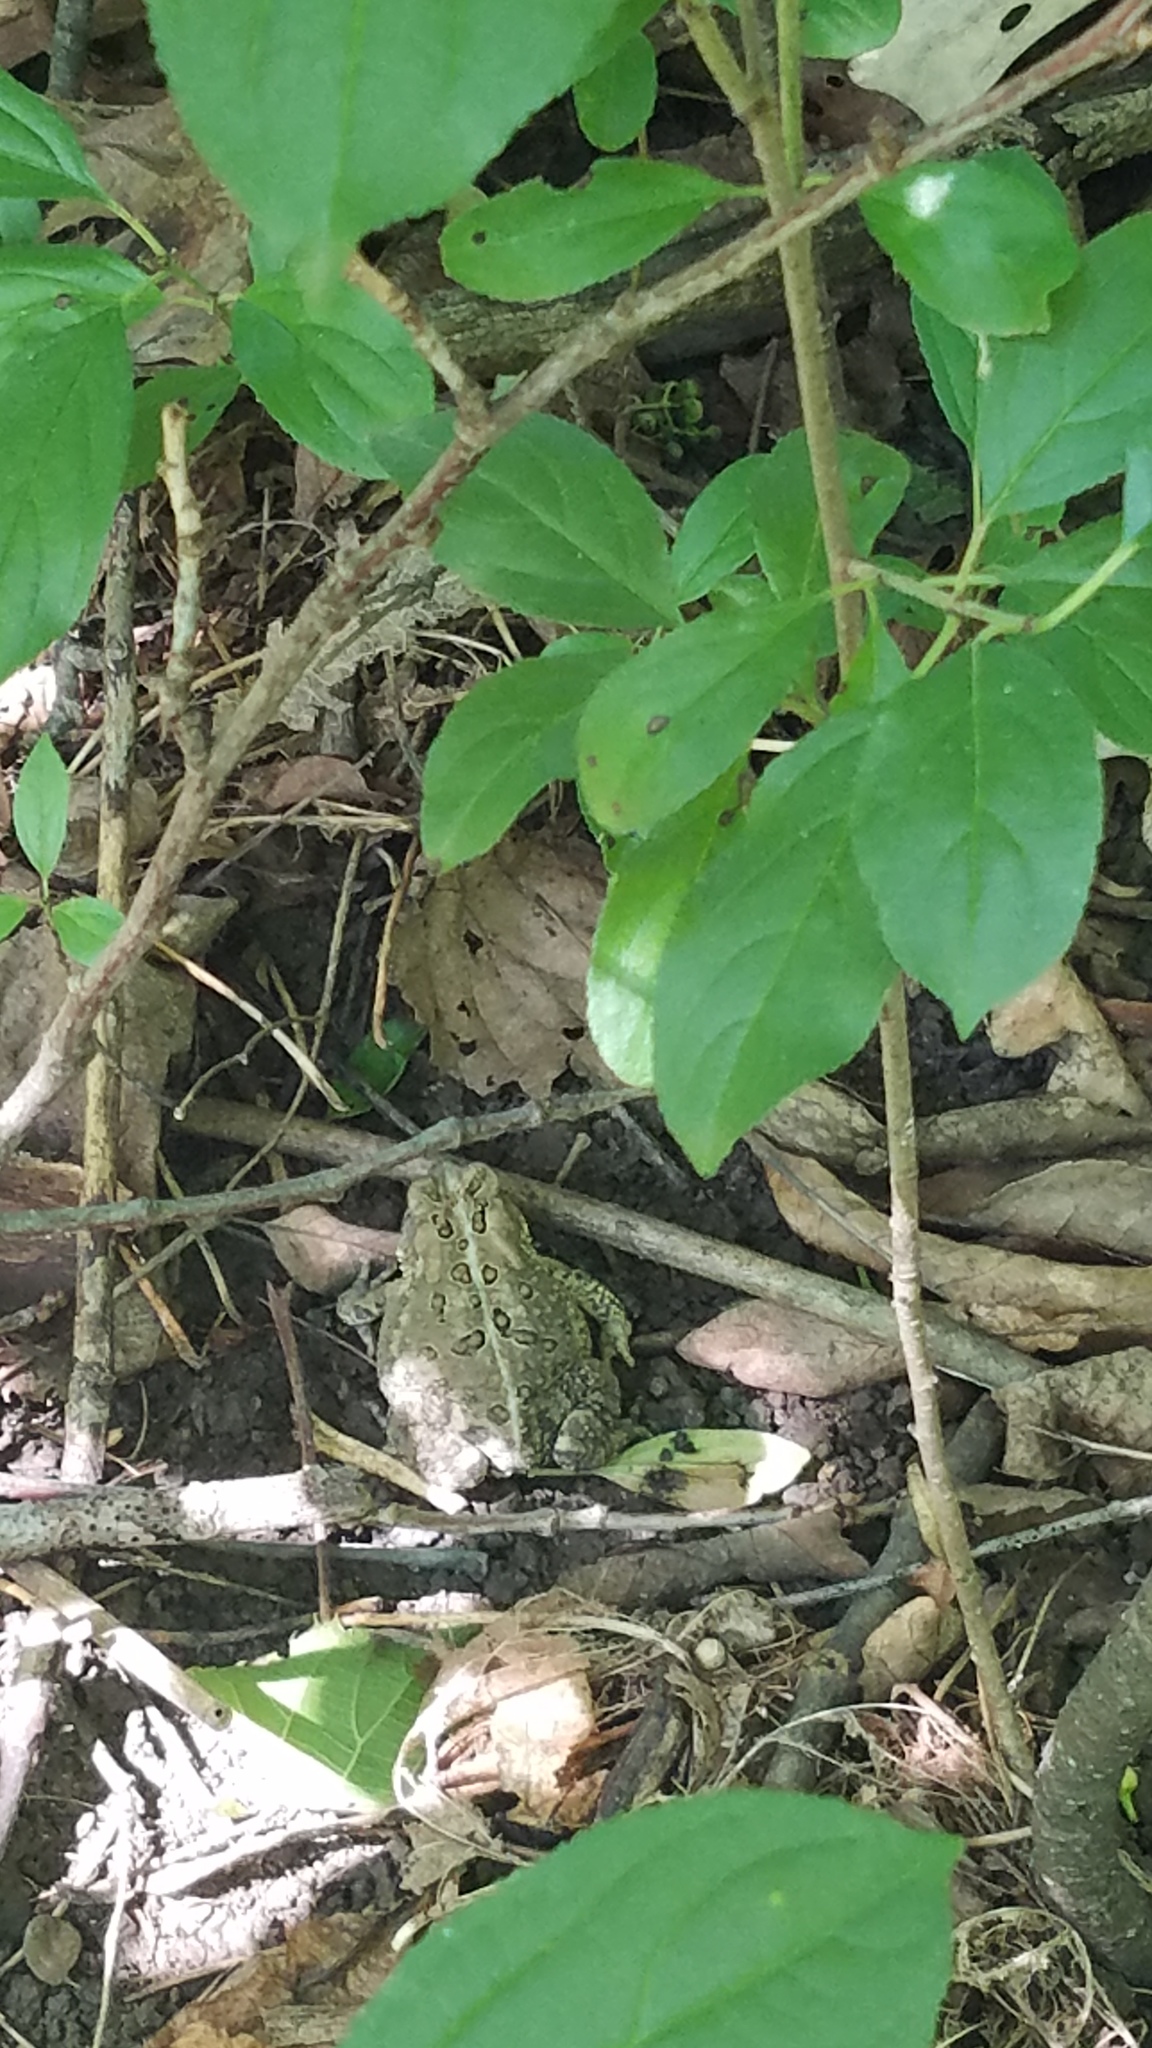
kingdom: Animalia
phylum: Chordata
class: Amphibia
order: Anura
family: Bufonidae
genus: Anaxyrus
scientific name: Anaxyrus americanus
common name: American toad
